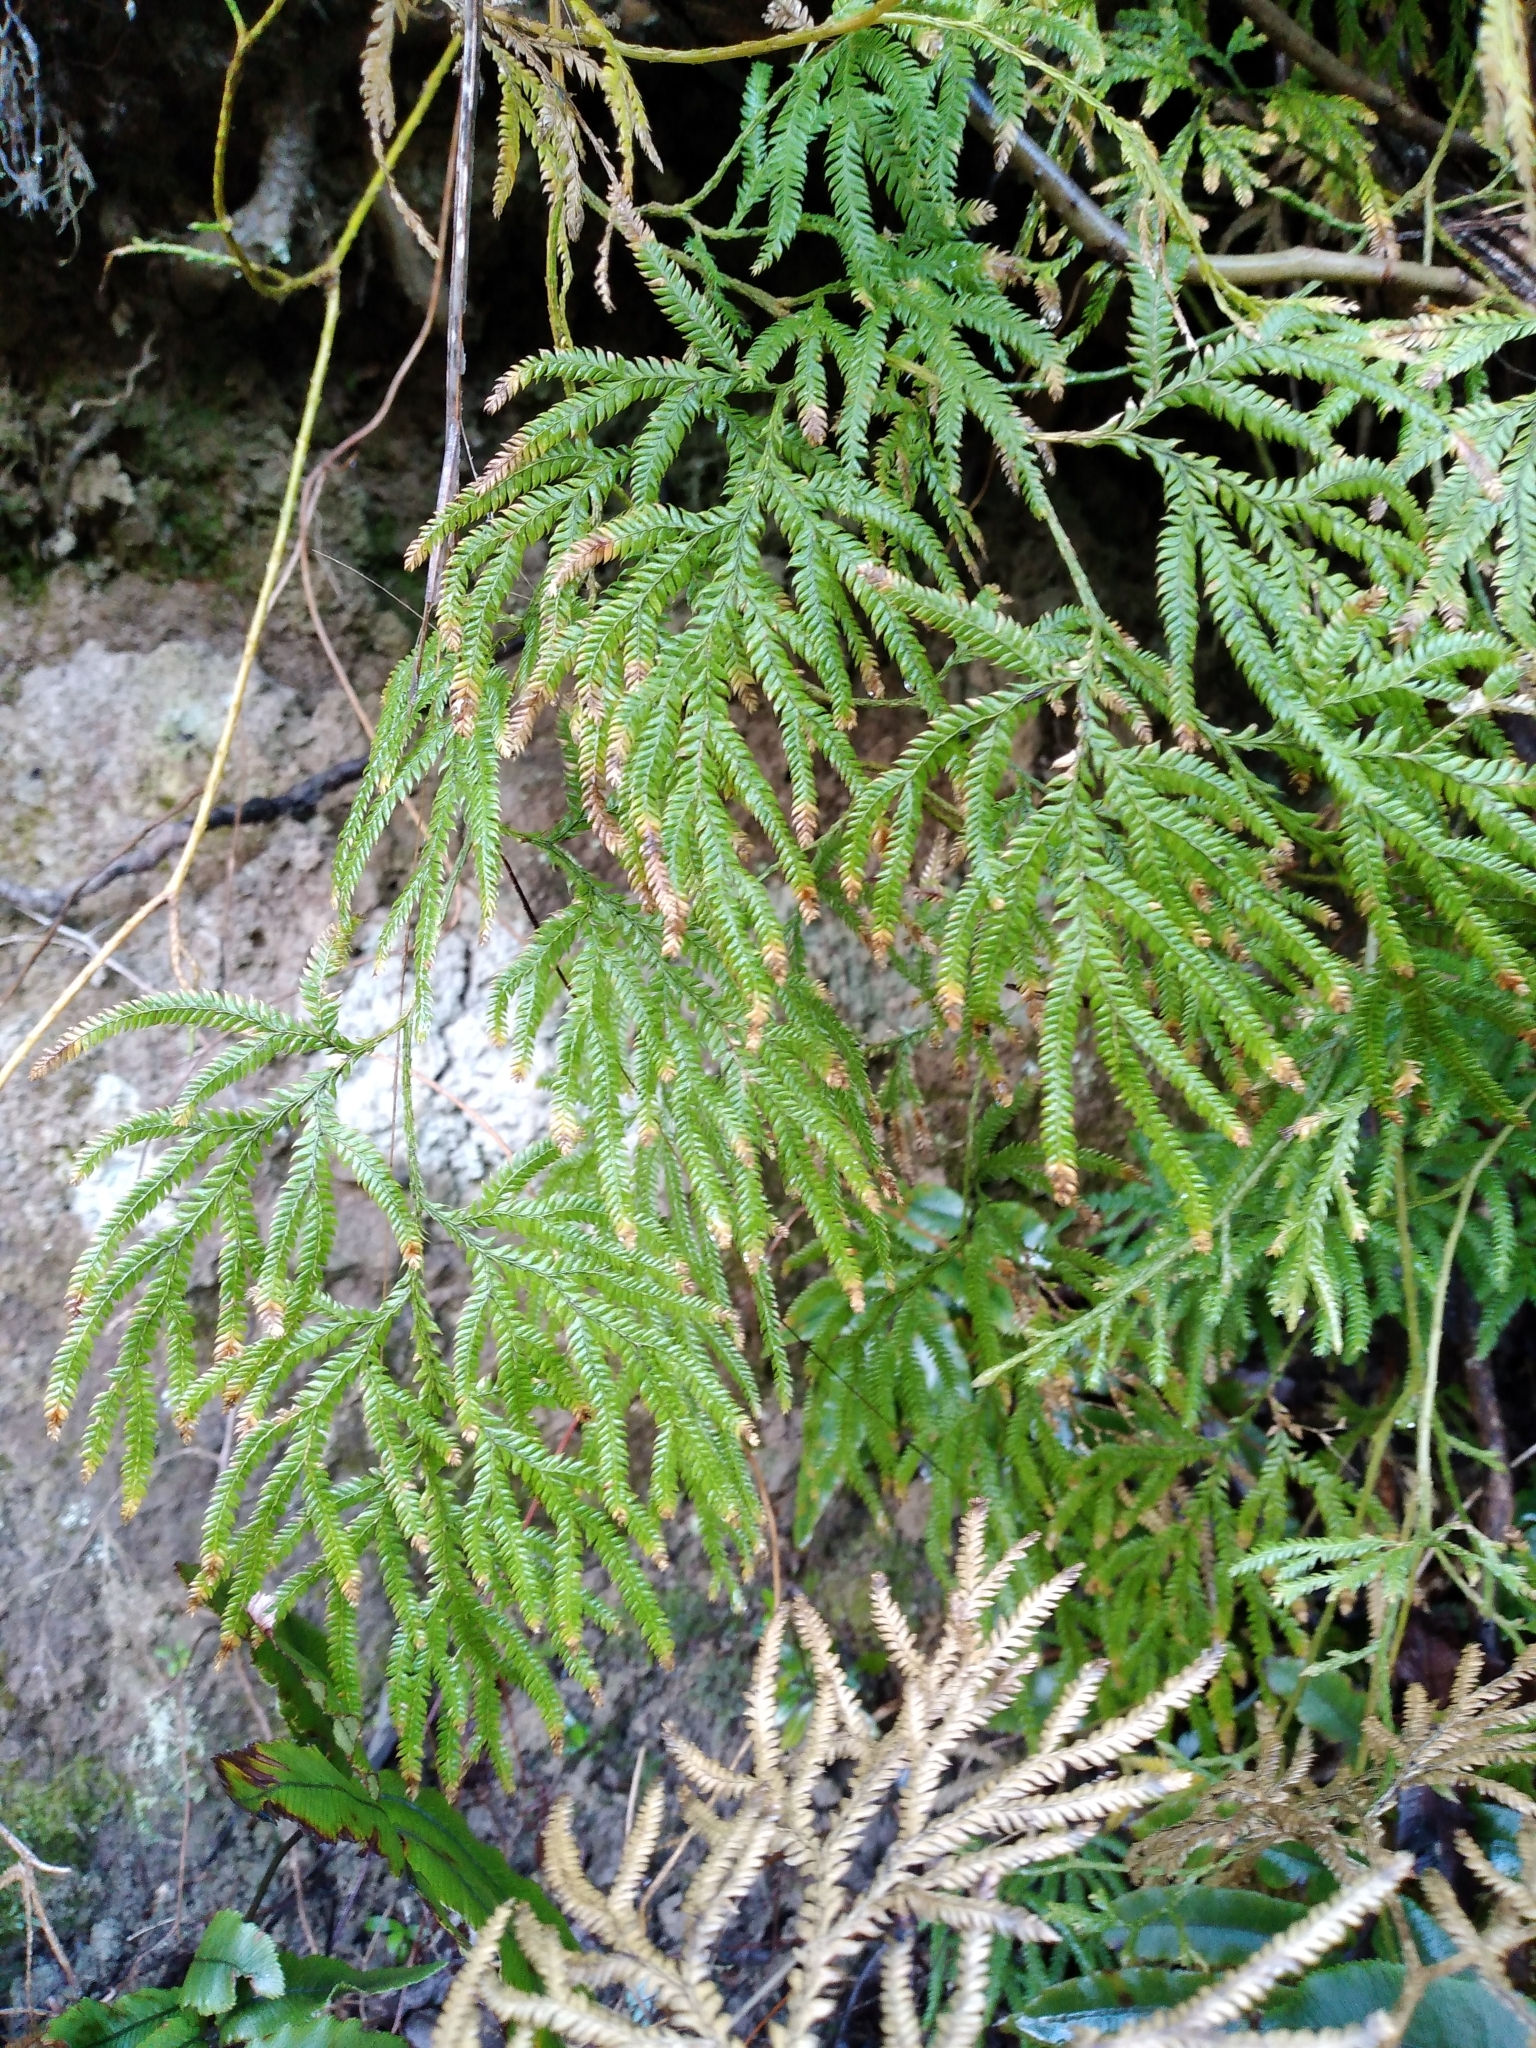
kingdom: Plantae
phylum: Tracheophyta
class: Lycopodiopsida
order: Lycopodiales
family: Lycopodiaceae
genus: Lycopodium
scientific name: Lycopodium volubile
